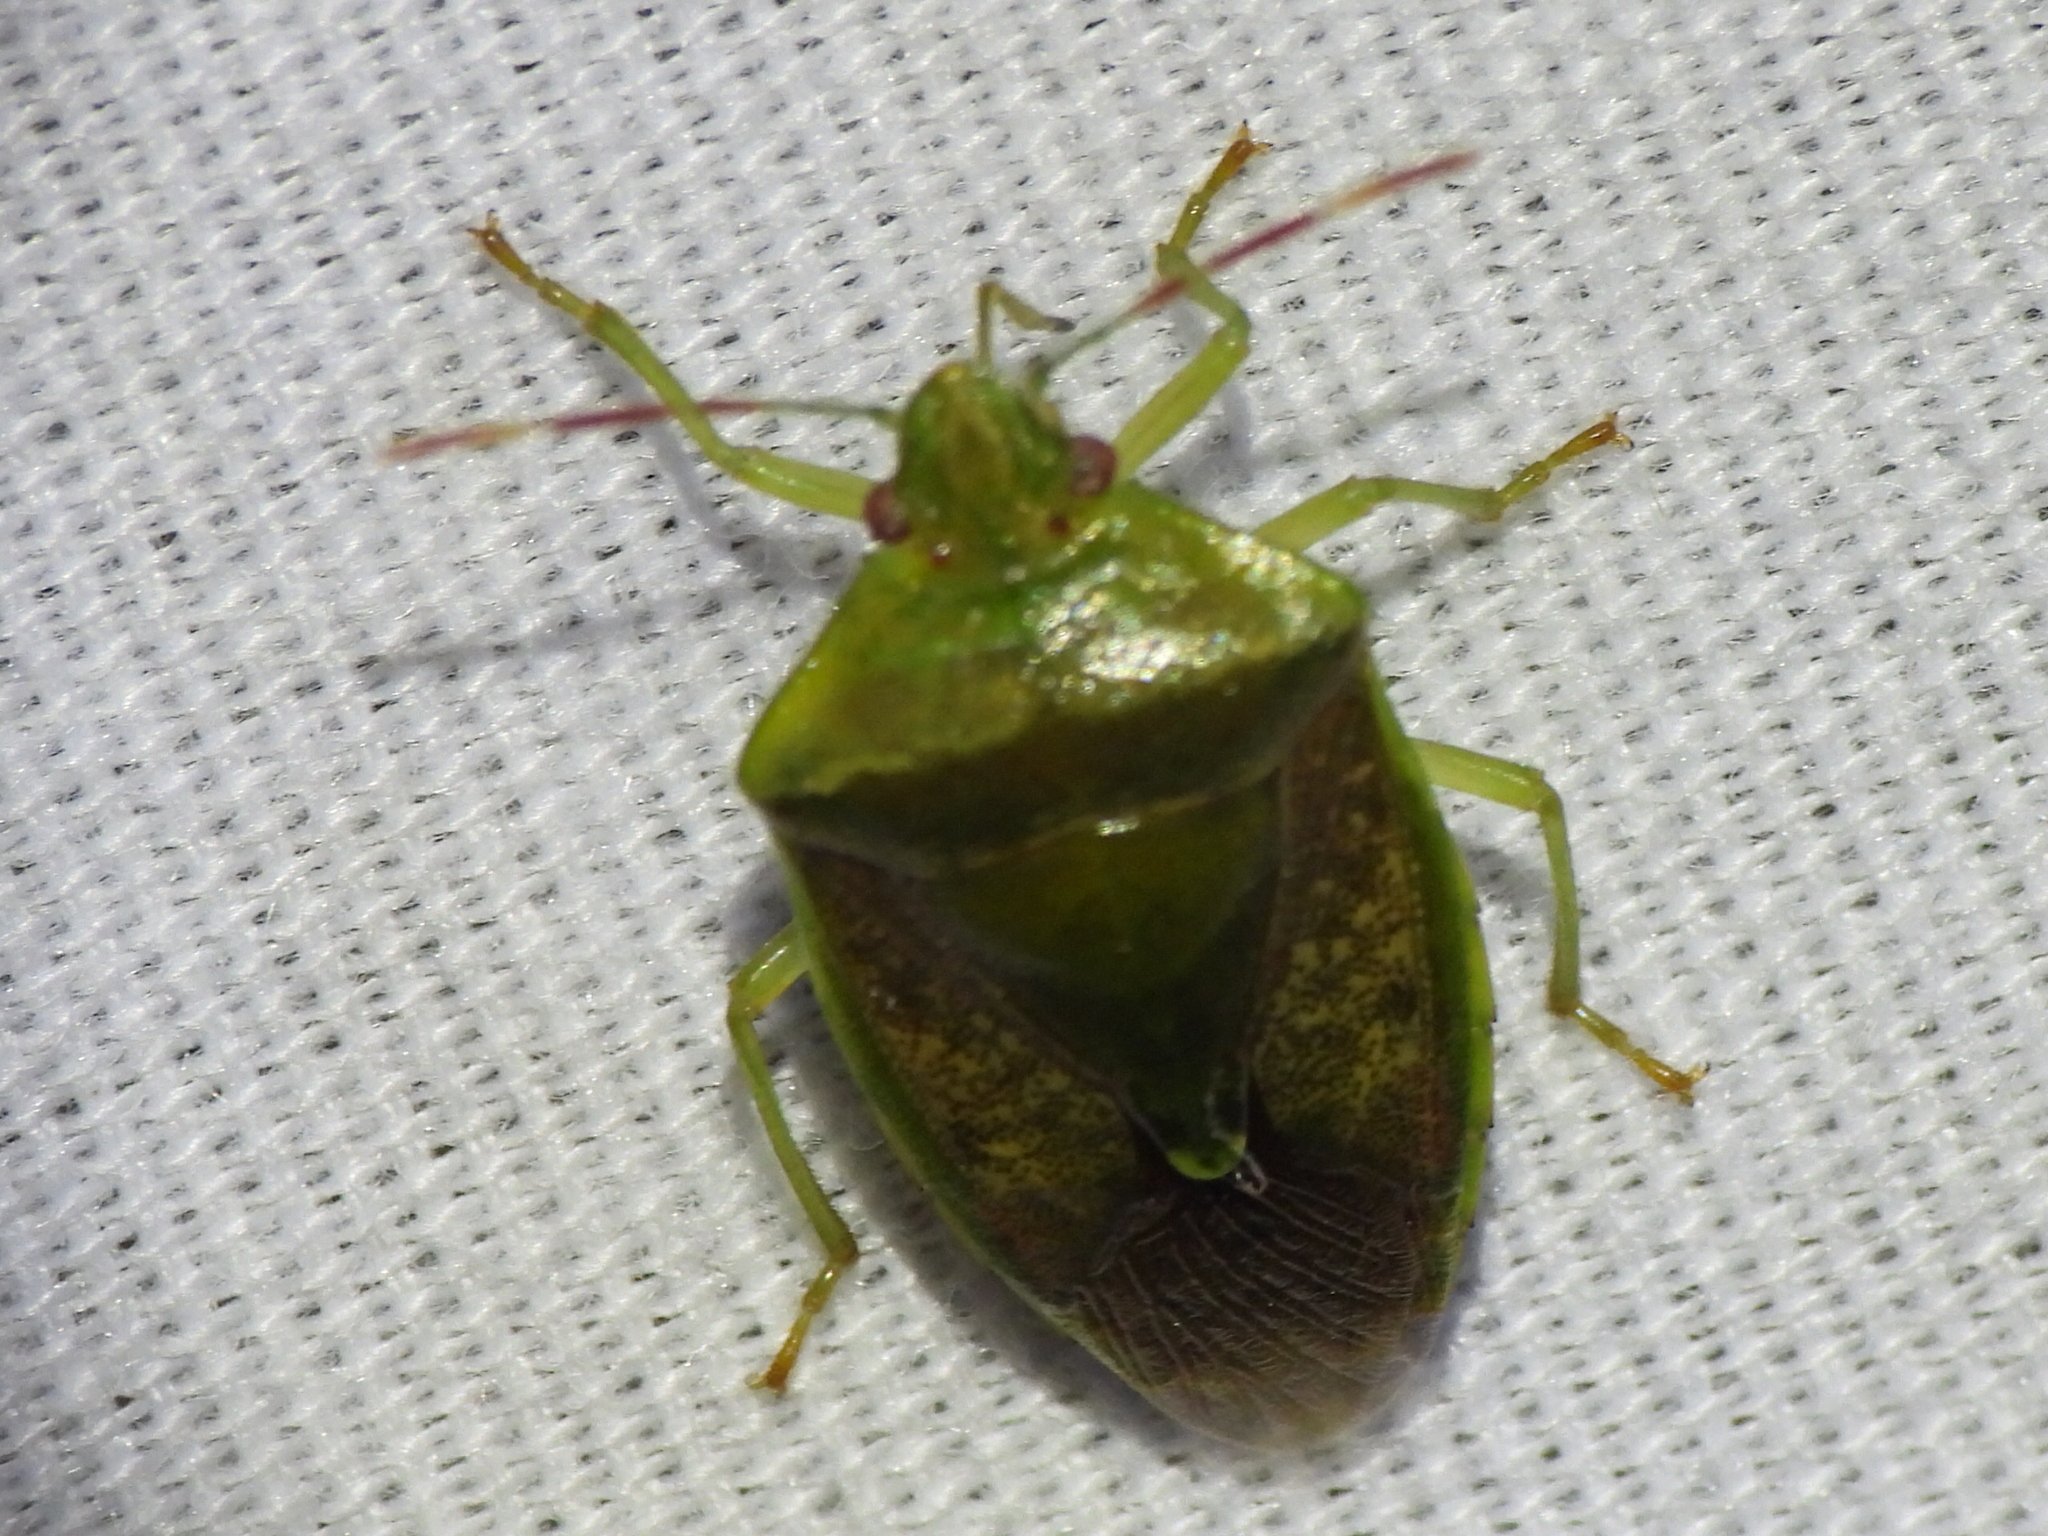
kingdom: Animalia
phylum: Arthropoda
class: Insecta
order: Hemiptera
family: Pentatomidae
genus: Banasa
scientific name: Banasa calva
